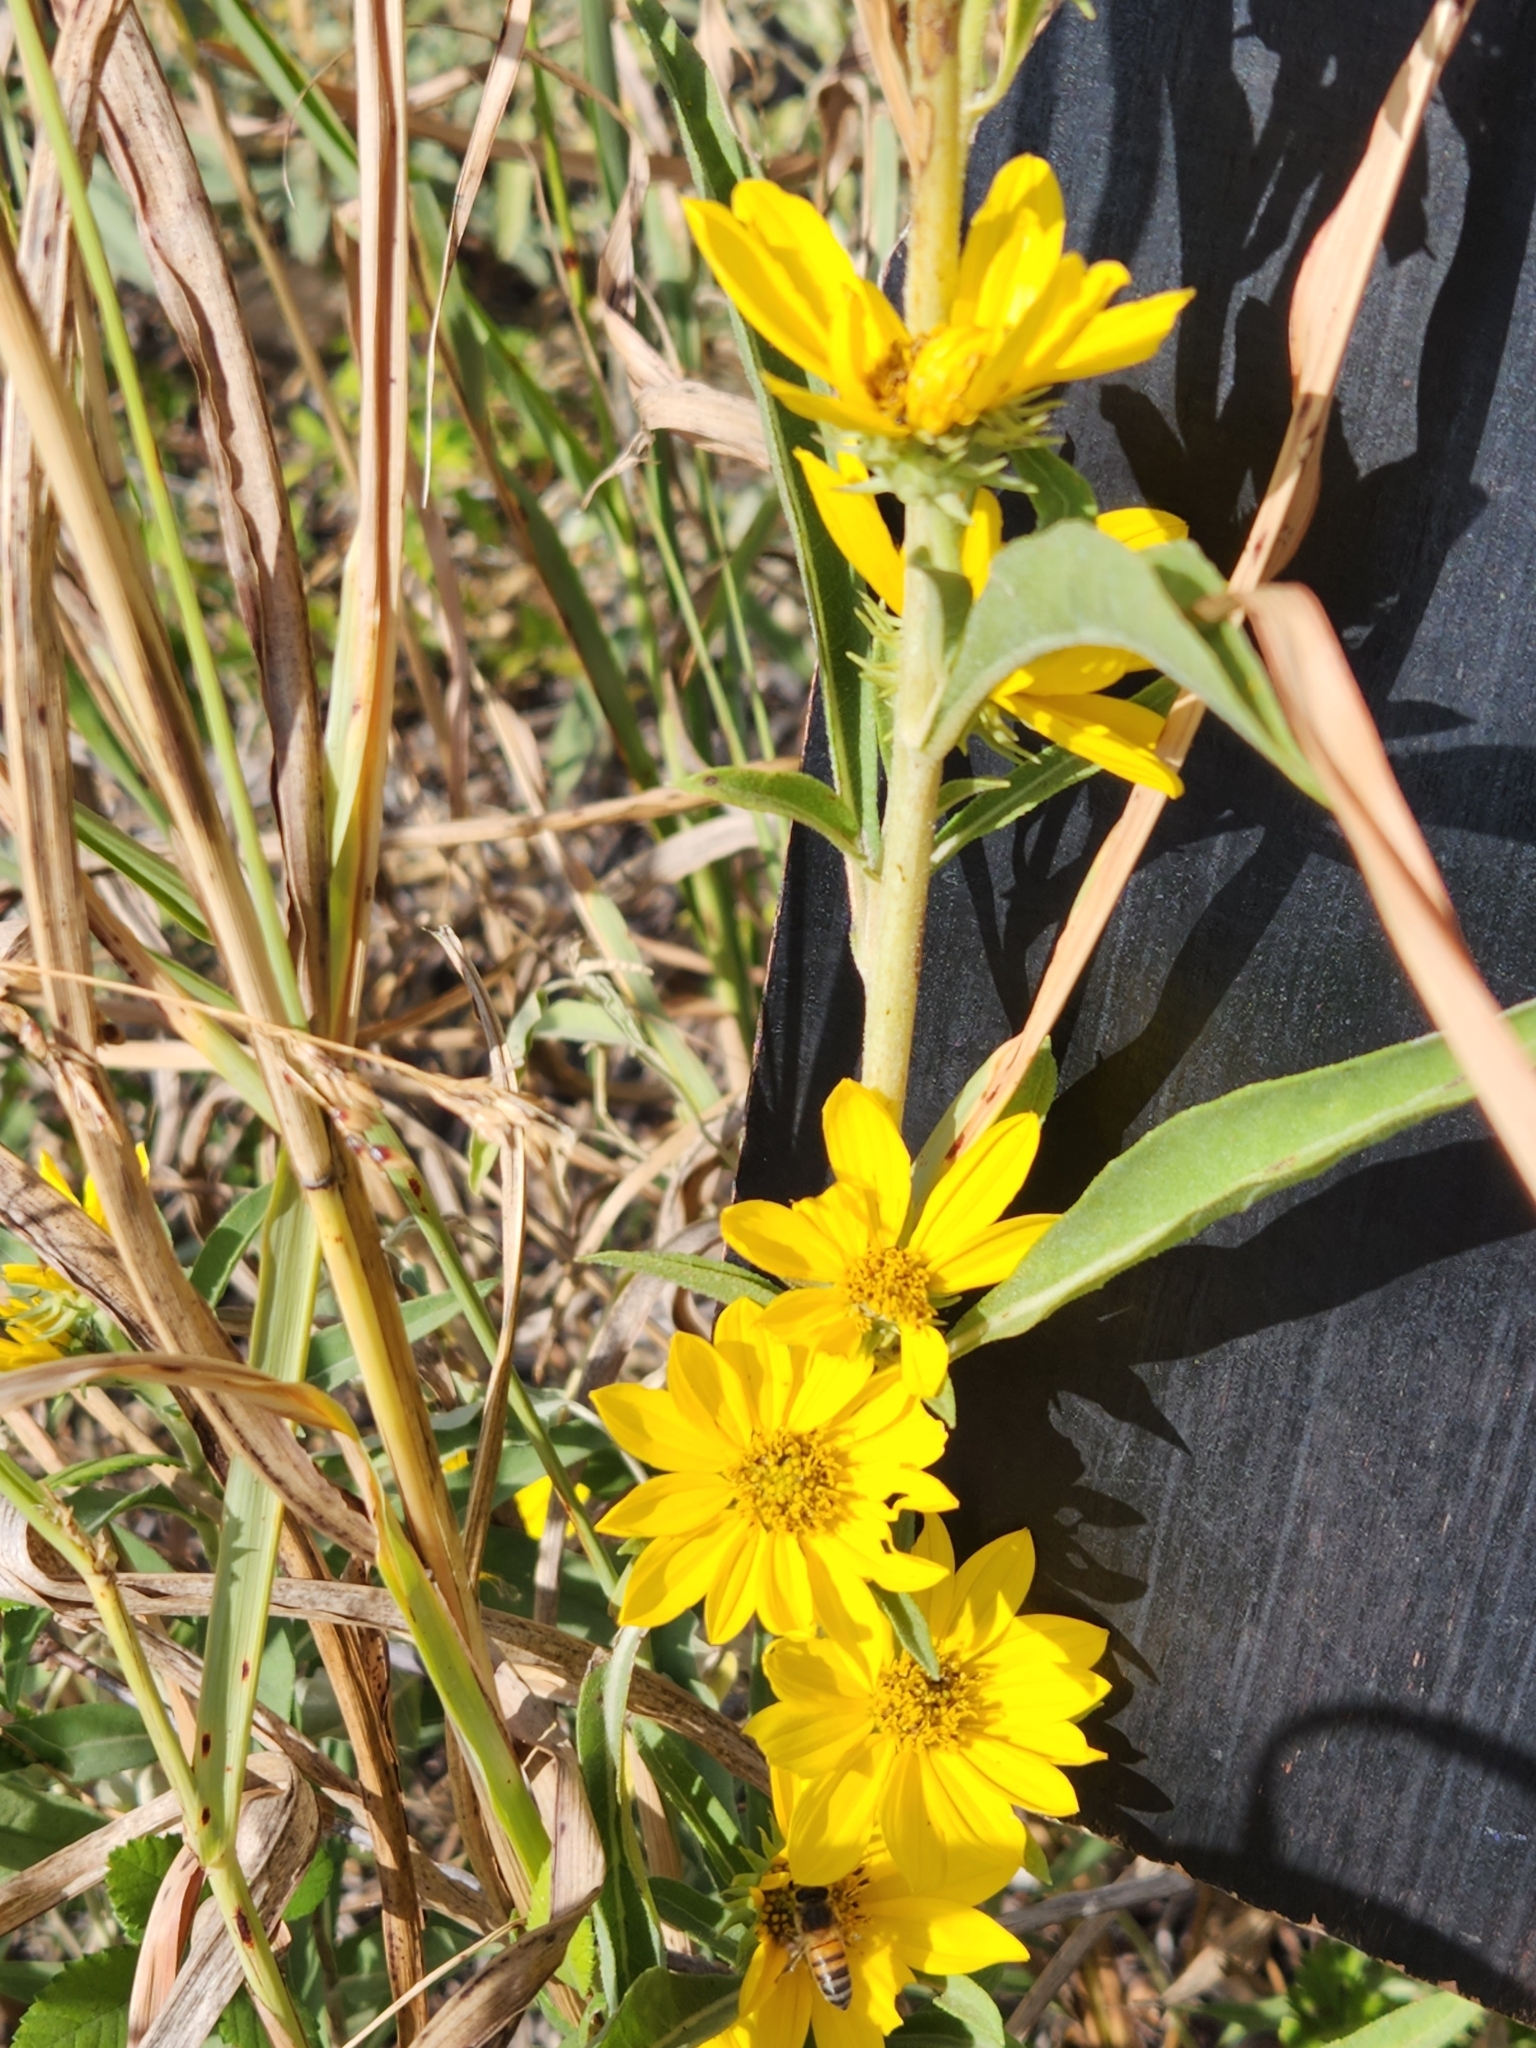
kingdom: Plantae
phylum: Tracheophyta
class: Magnoliopsida
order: Asterales
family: Asteraceae
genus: Helianthus
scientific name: Helianthus maximiliani
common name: Maximilian's sunflower
